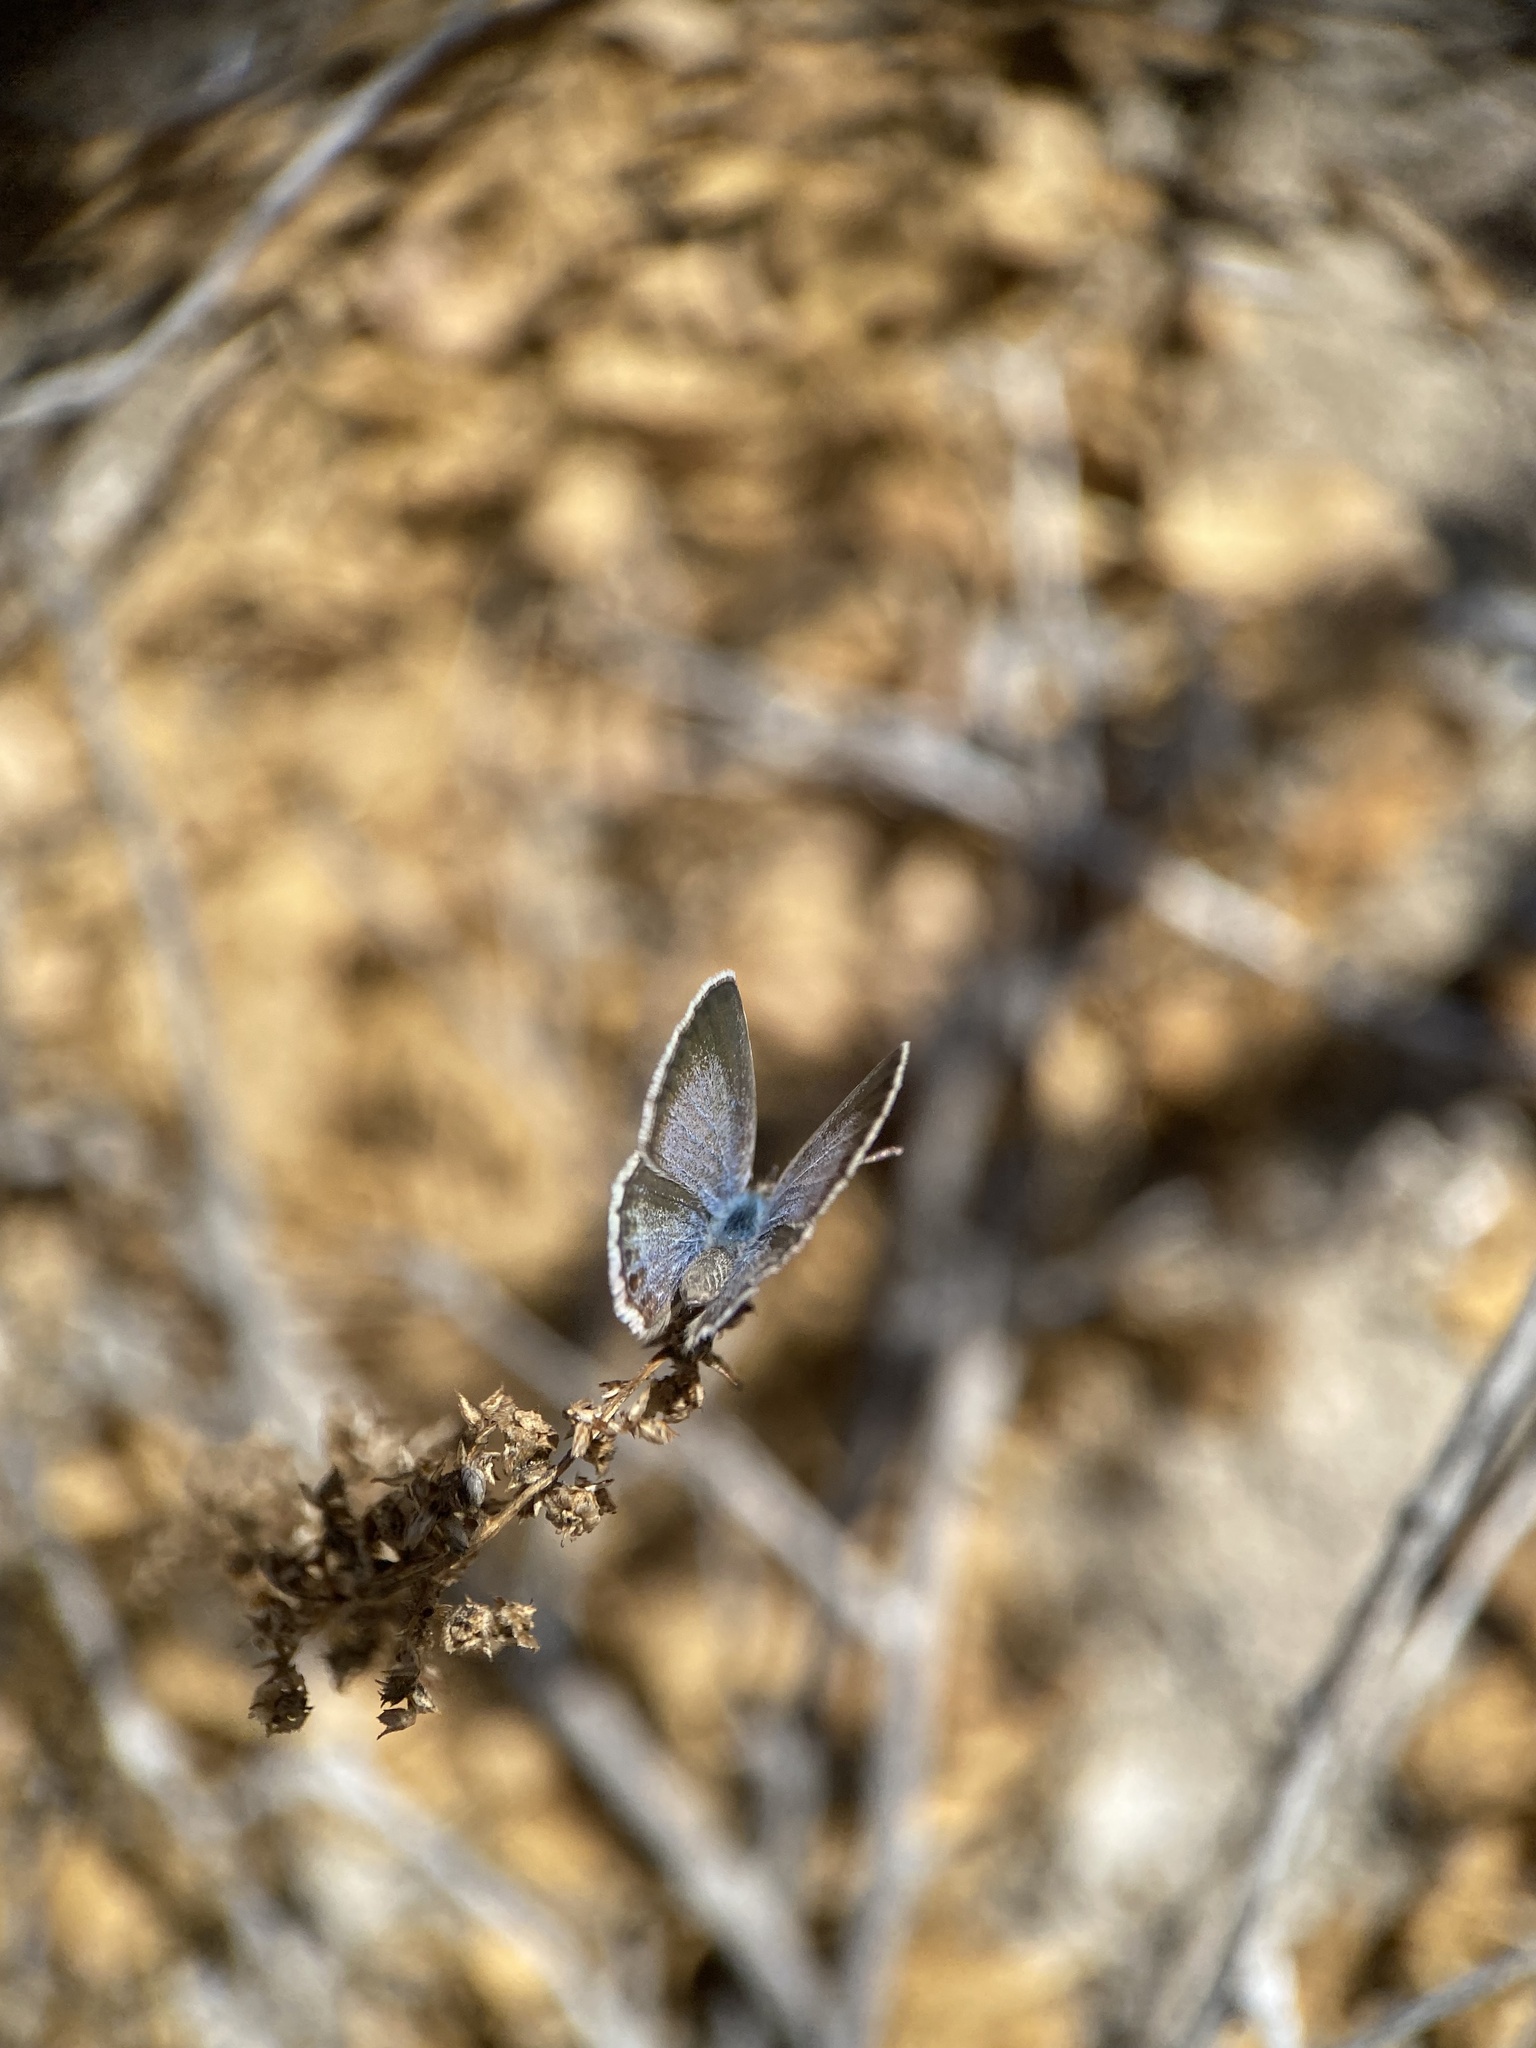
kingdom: Animalia
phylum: Arthropoda
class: Insecta
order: Lepidoptera
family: Lycaenidae
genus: Echinargus
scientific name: Echinargus isola
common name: Reakirt's blue
